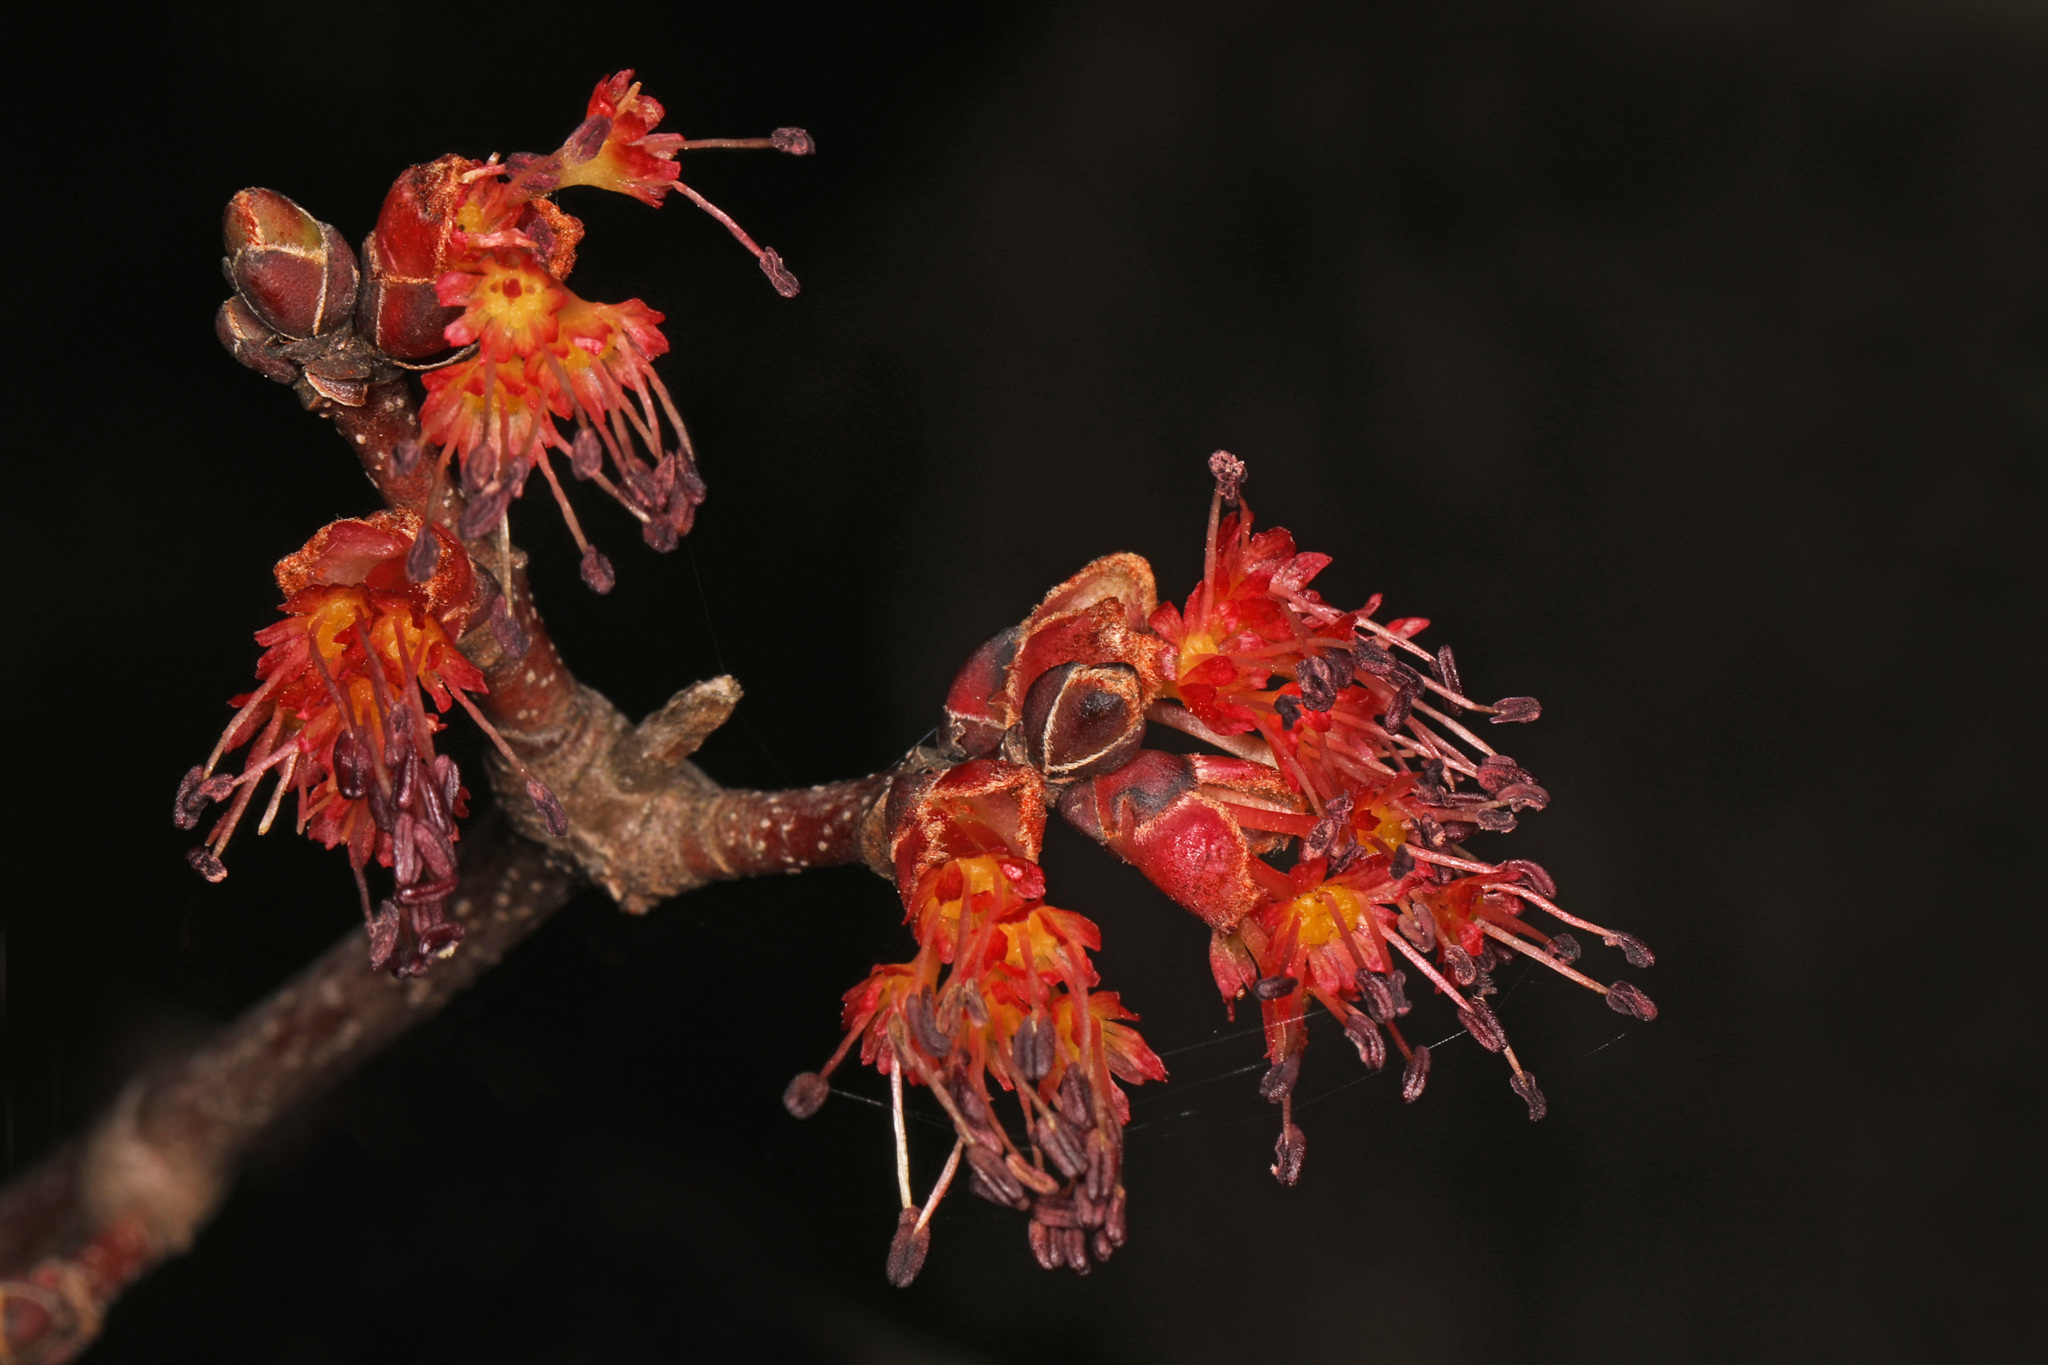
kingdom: Plantae
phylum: Tracheophyta
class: Magnoliopsida
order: Sapindales
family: Sapindaceae
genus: Acer
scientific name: Acer rubrum
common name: Red maple
